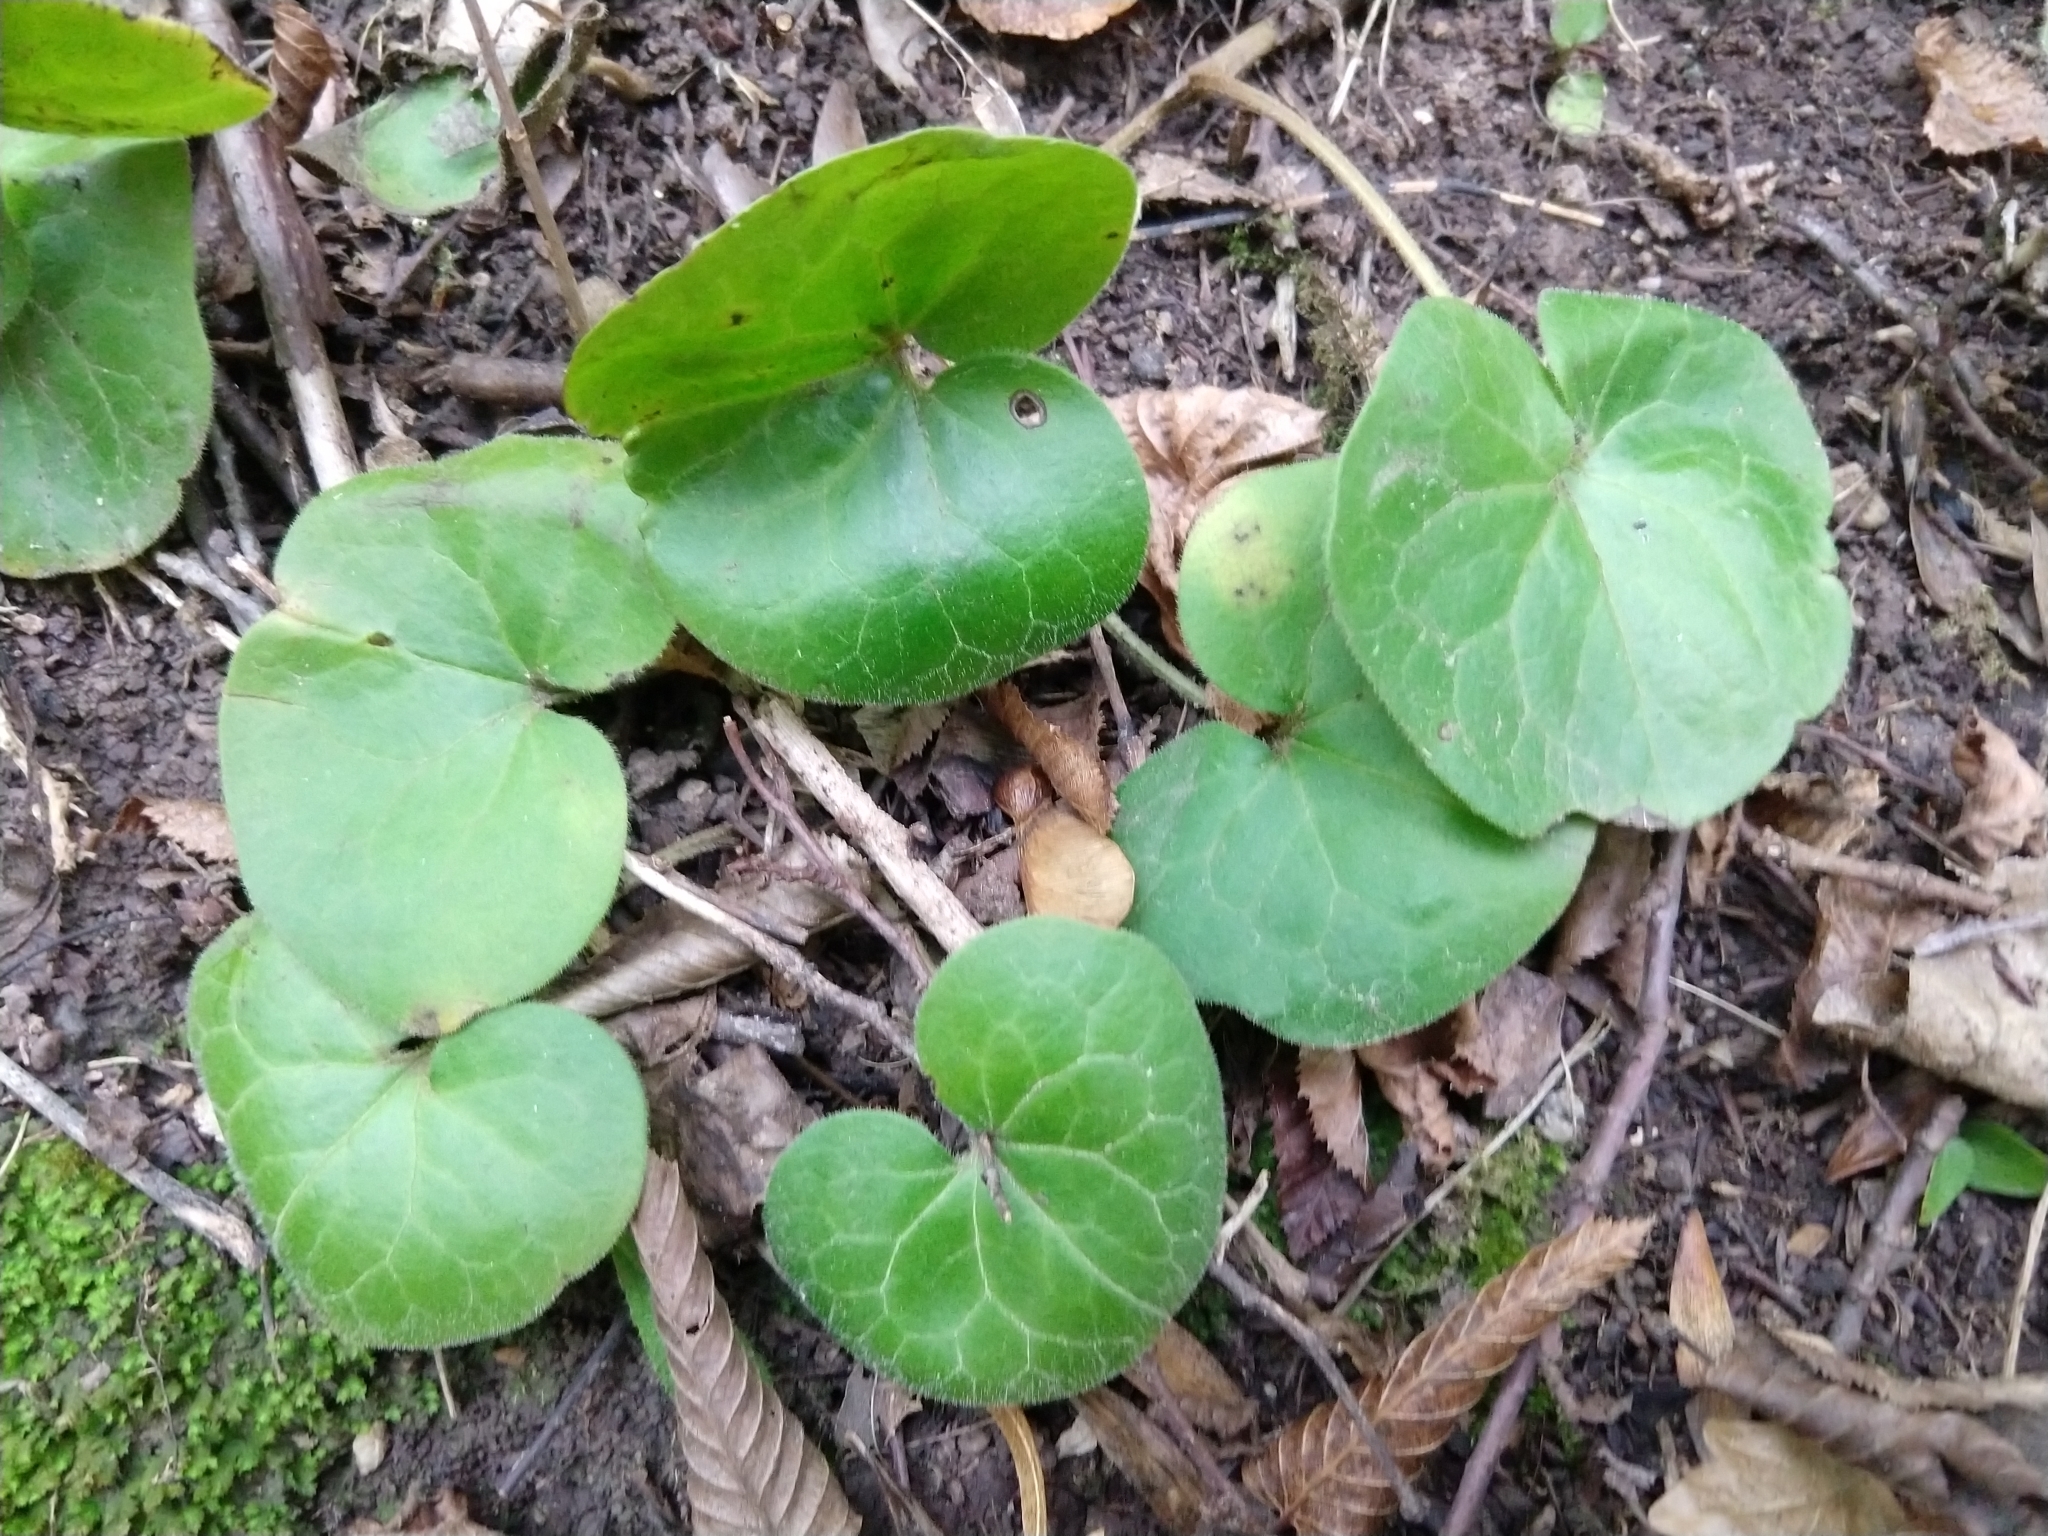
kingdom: Plantae
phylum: Tracheophyta
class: Magnoliopsida
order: Piperales
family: Aristolochiaceae
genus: Asarum
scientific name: Asarum europaeum
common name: Asarabacca
